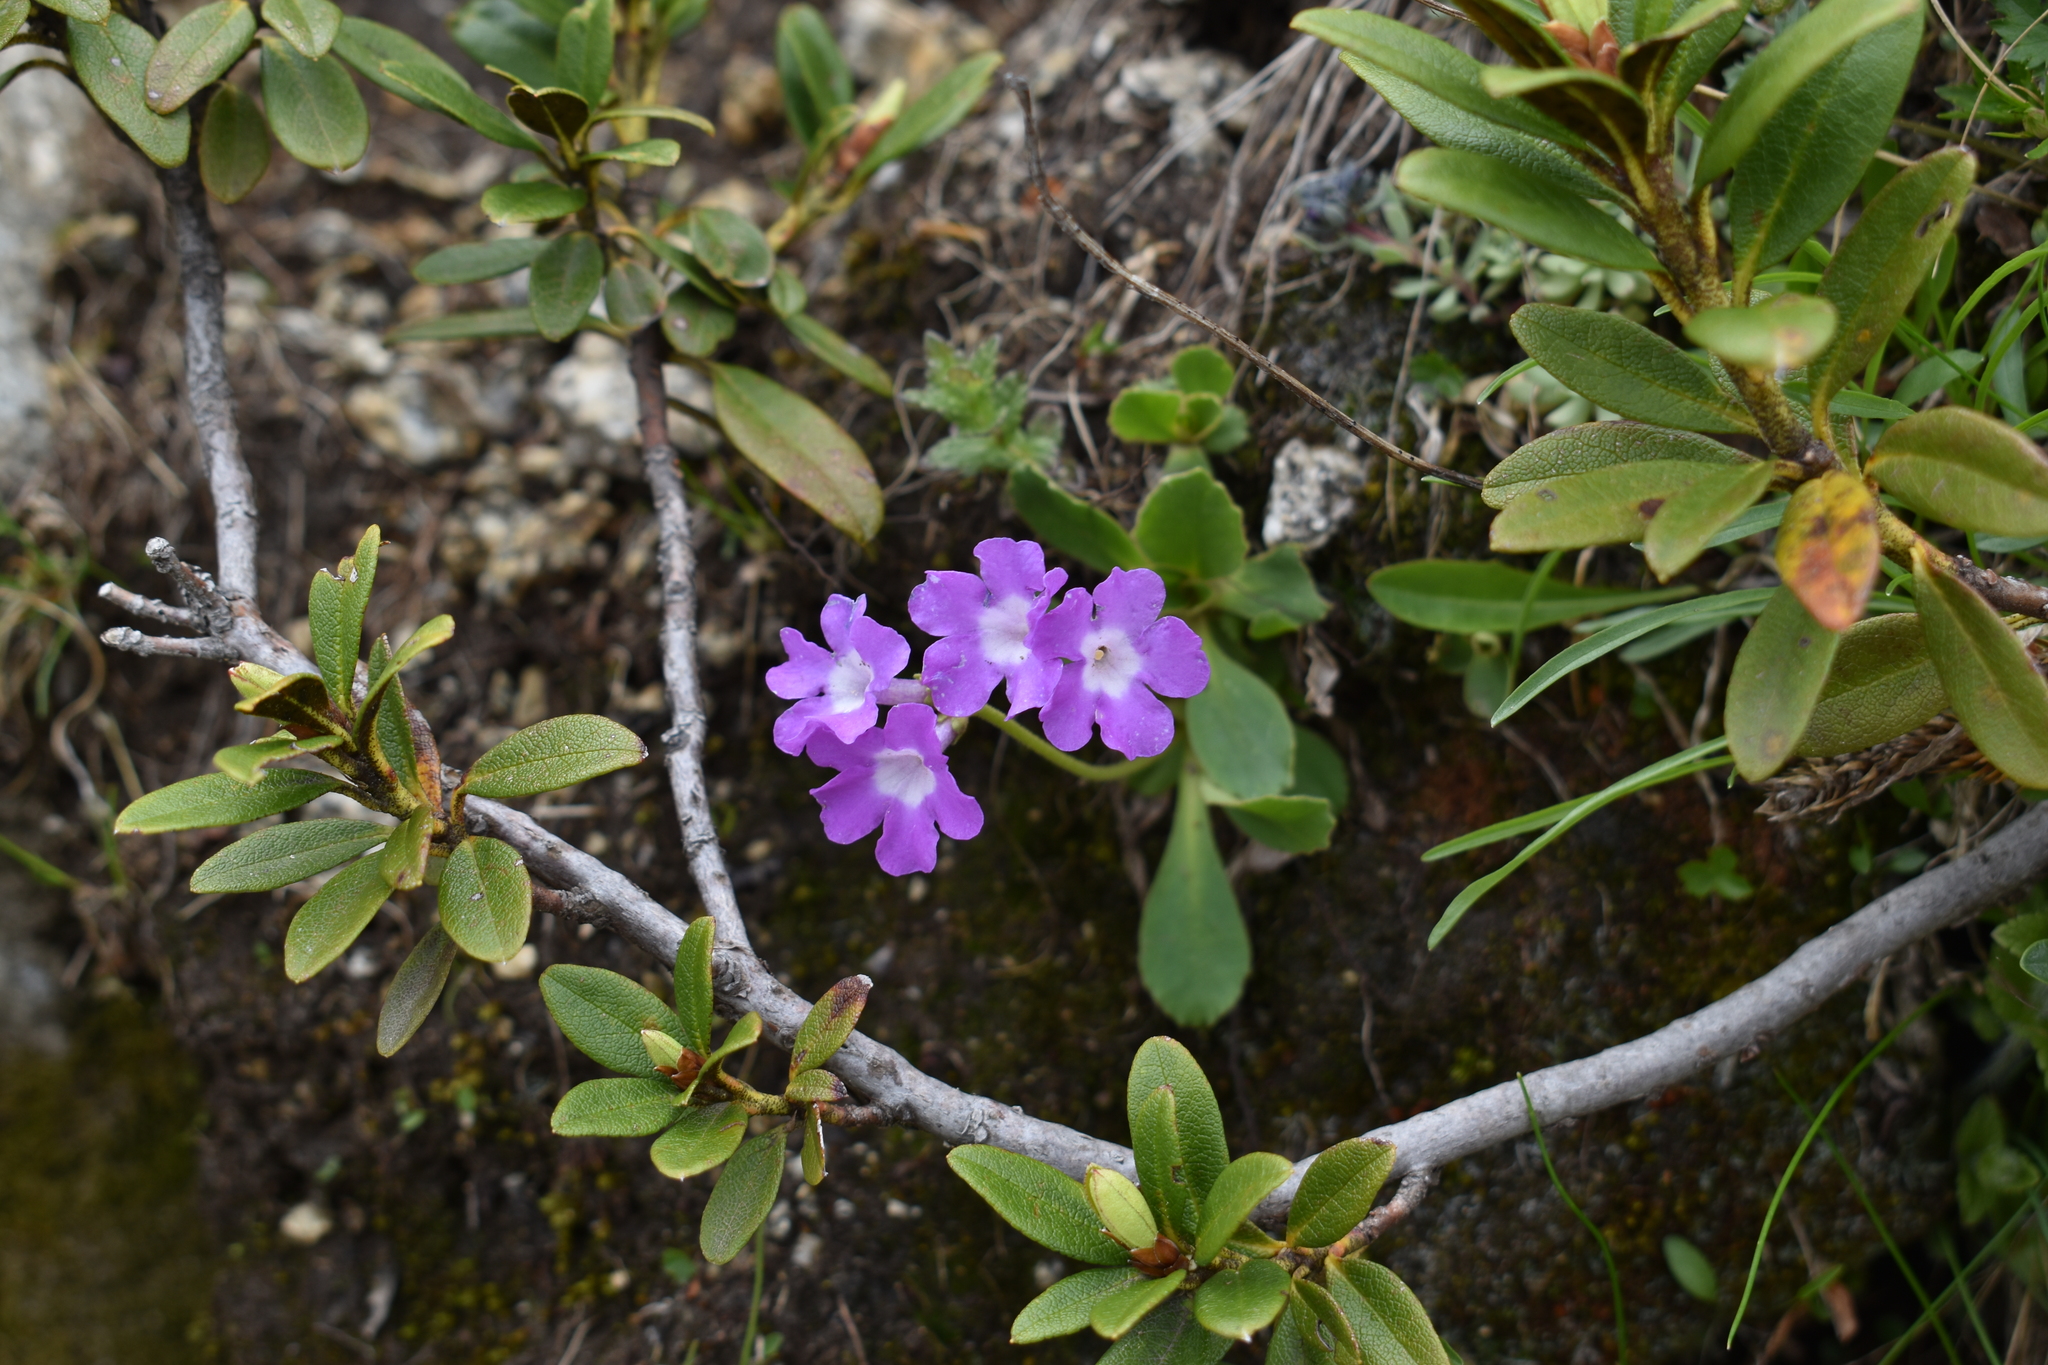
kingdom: Plantae
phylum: Tracheophyta
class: Magnoliopsida
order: Ericales
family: Primulaceae
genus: Primula
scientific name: Primula daonensis
